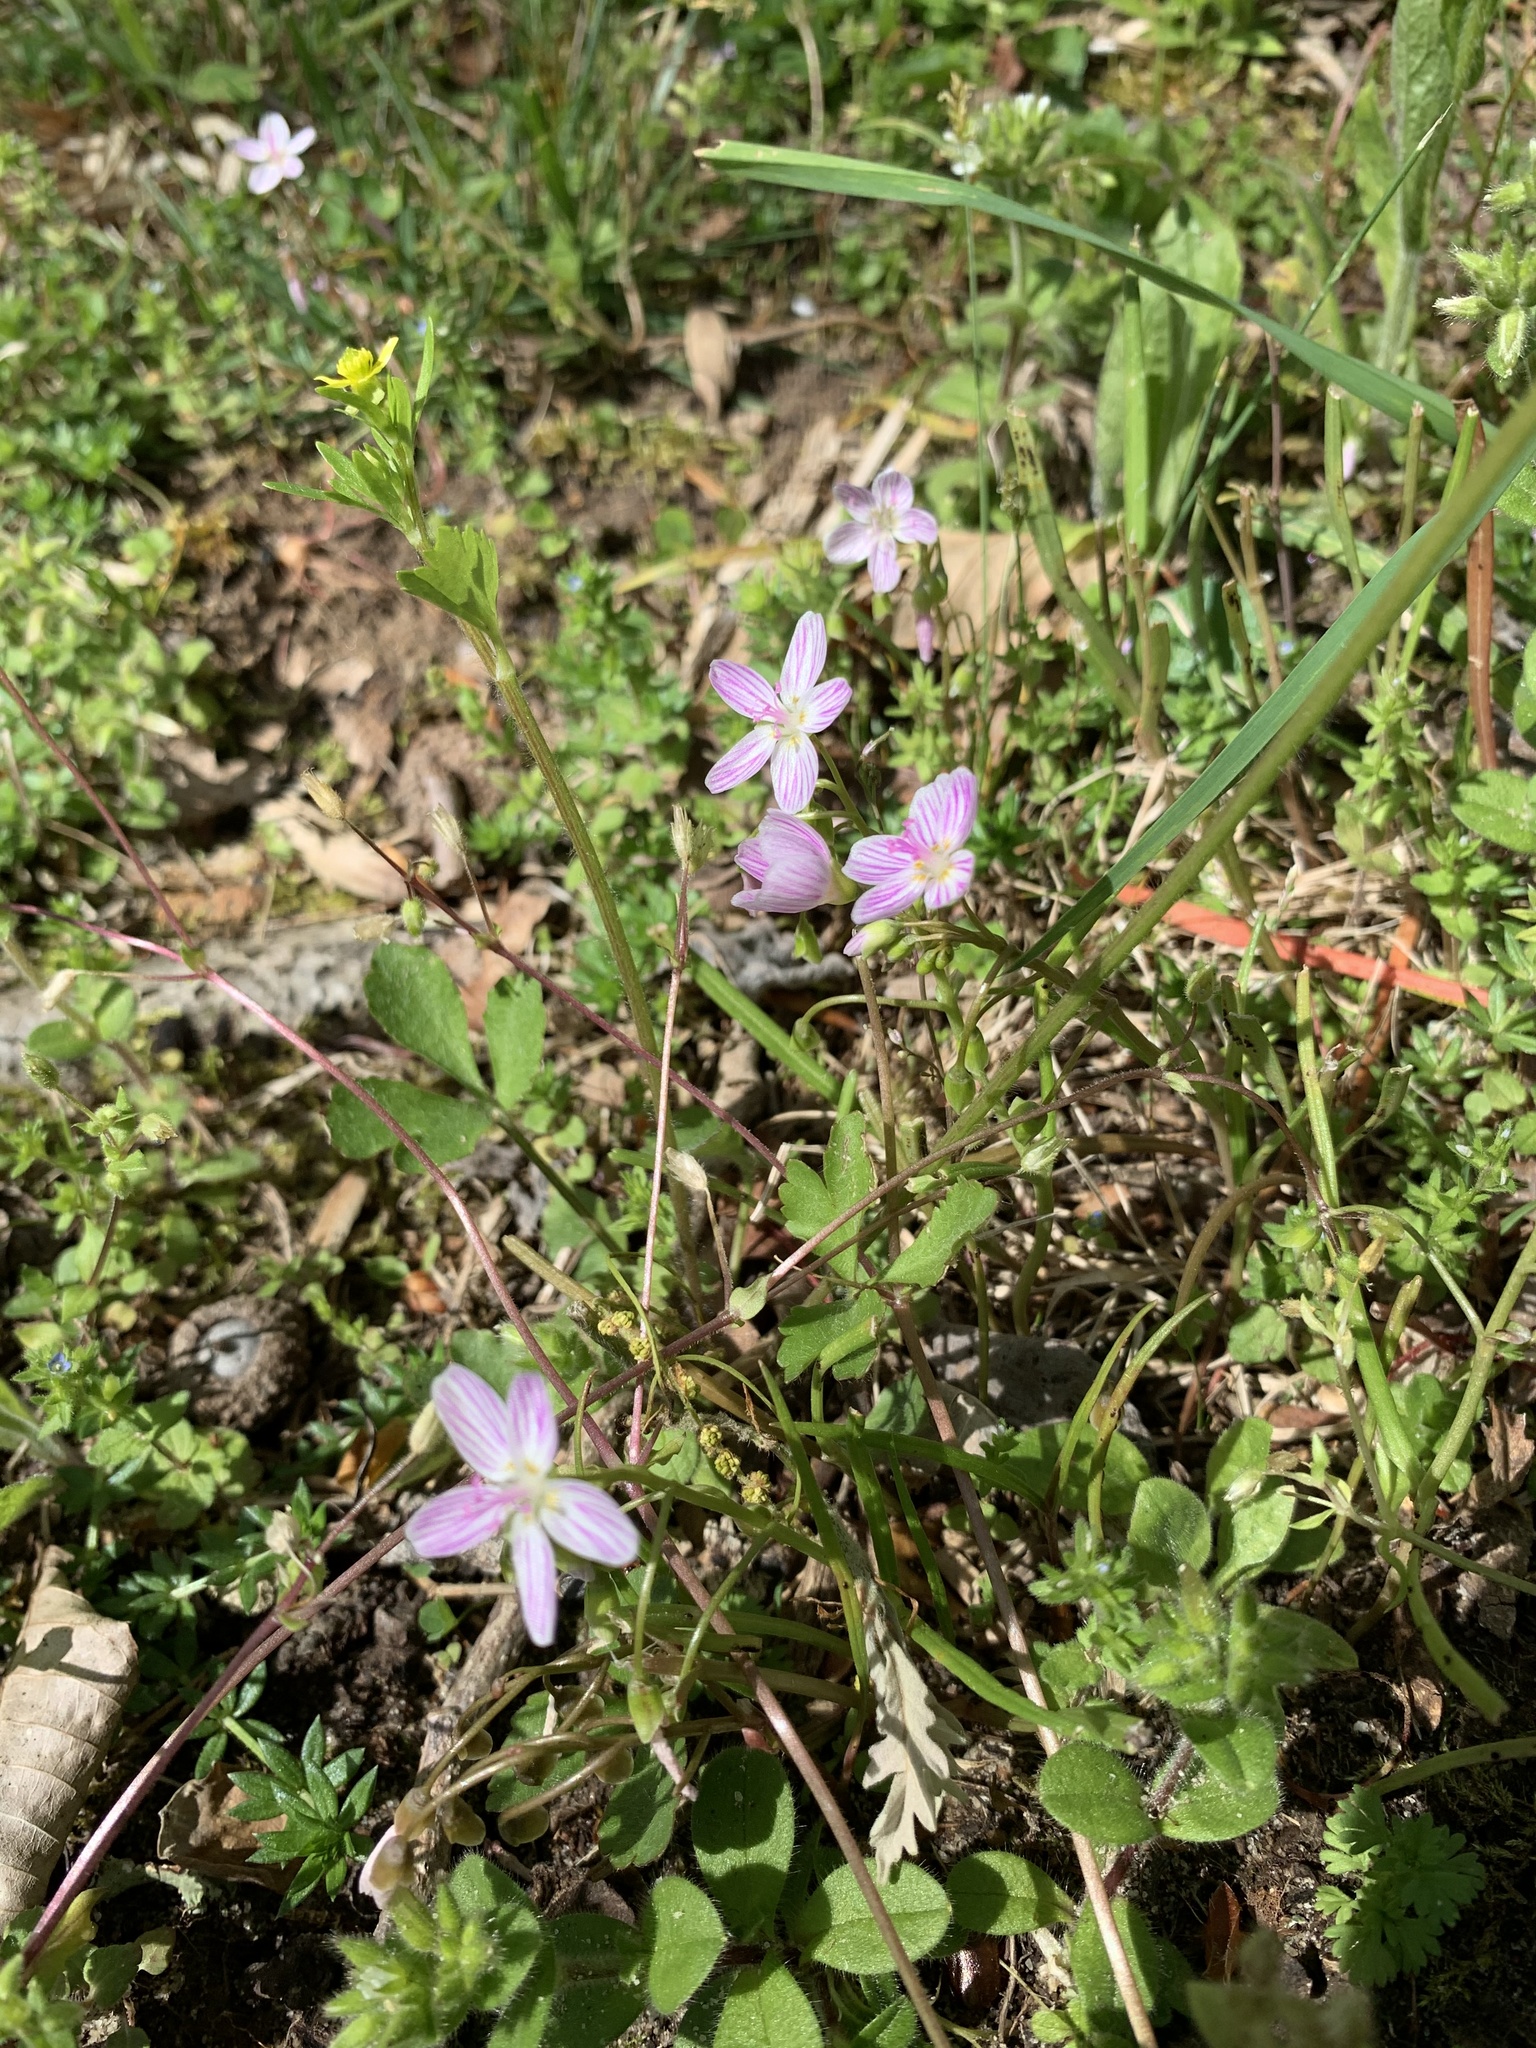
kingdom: Plantae
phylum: Tracheophyta
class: Magnoliopsida
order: Caryophyllales
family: Montiaceae
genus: Claytonia
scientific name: Claytonia virginica
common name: Virginia springbeauty
